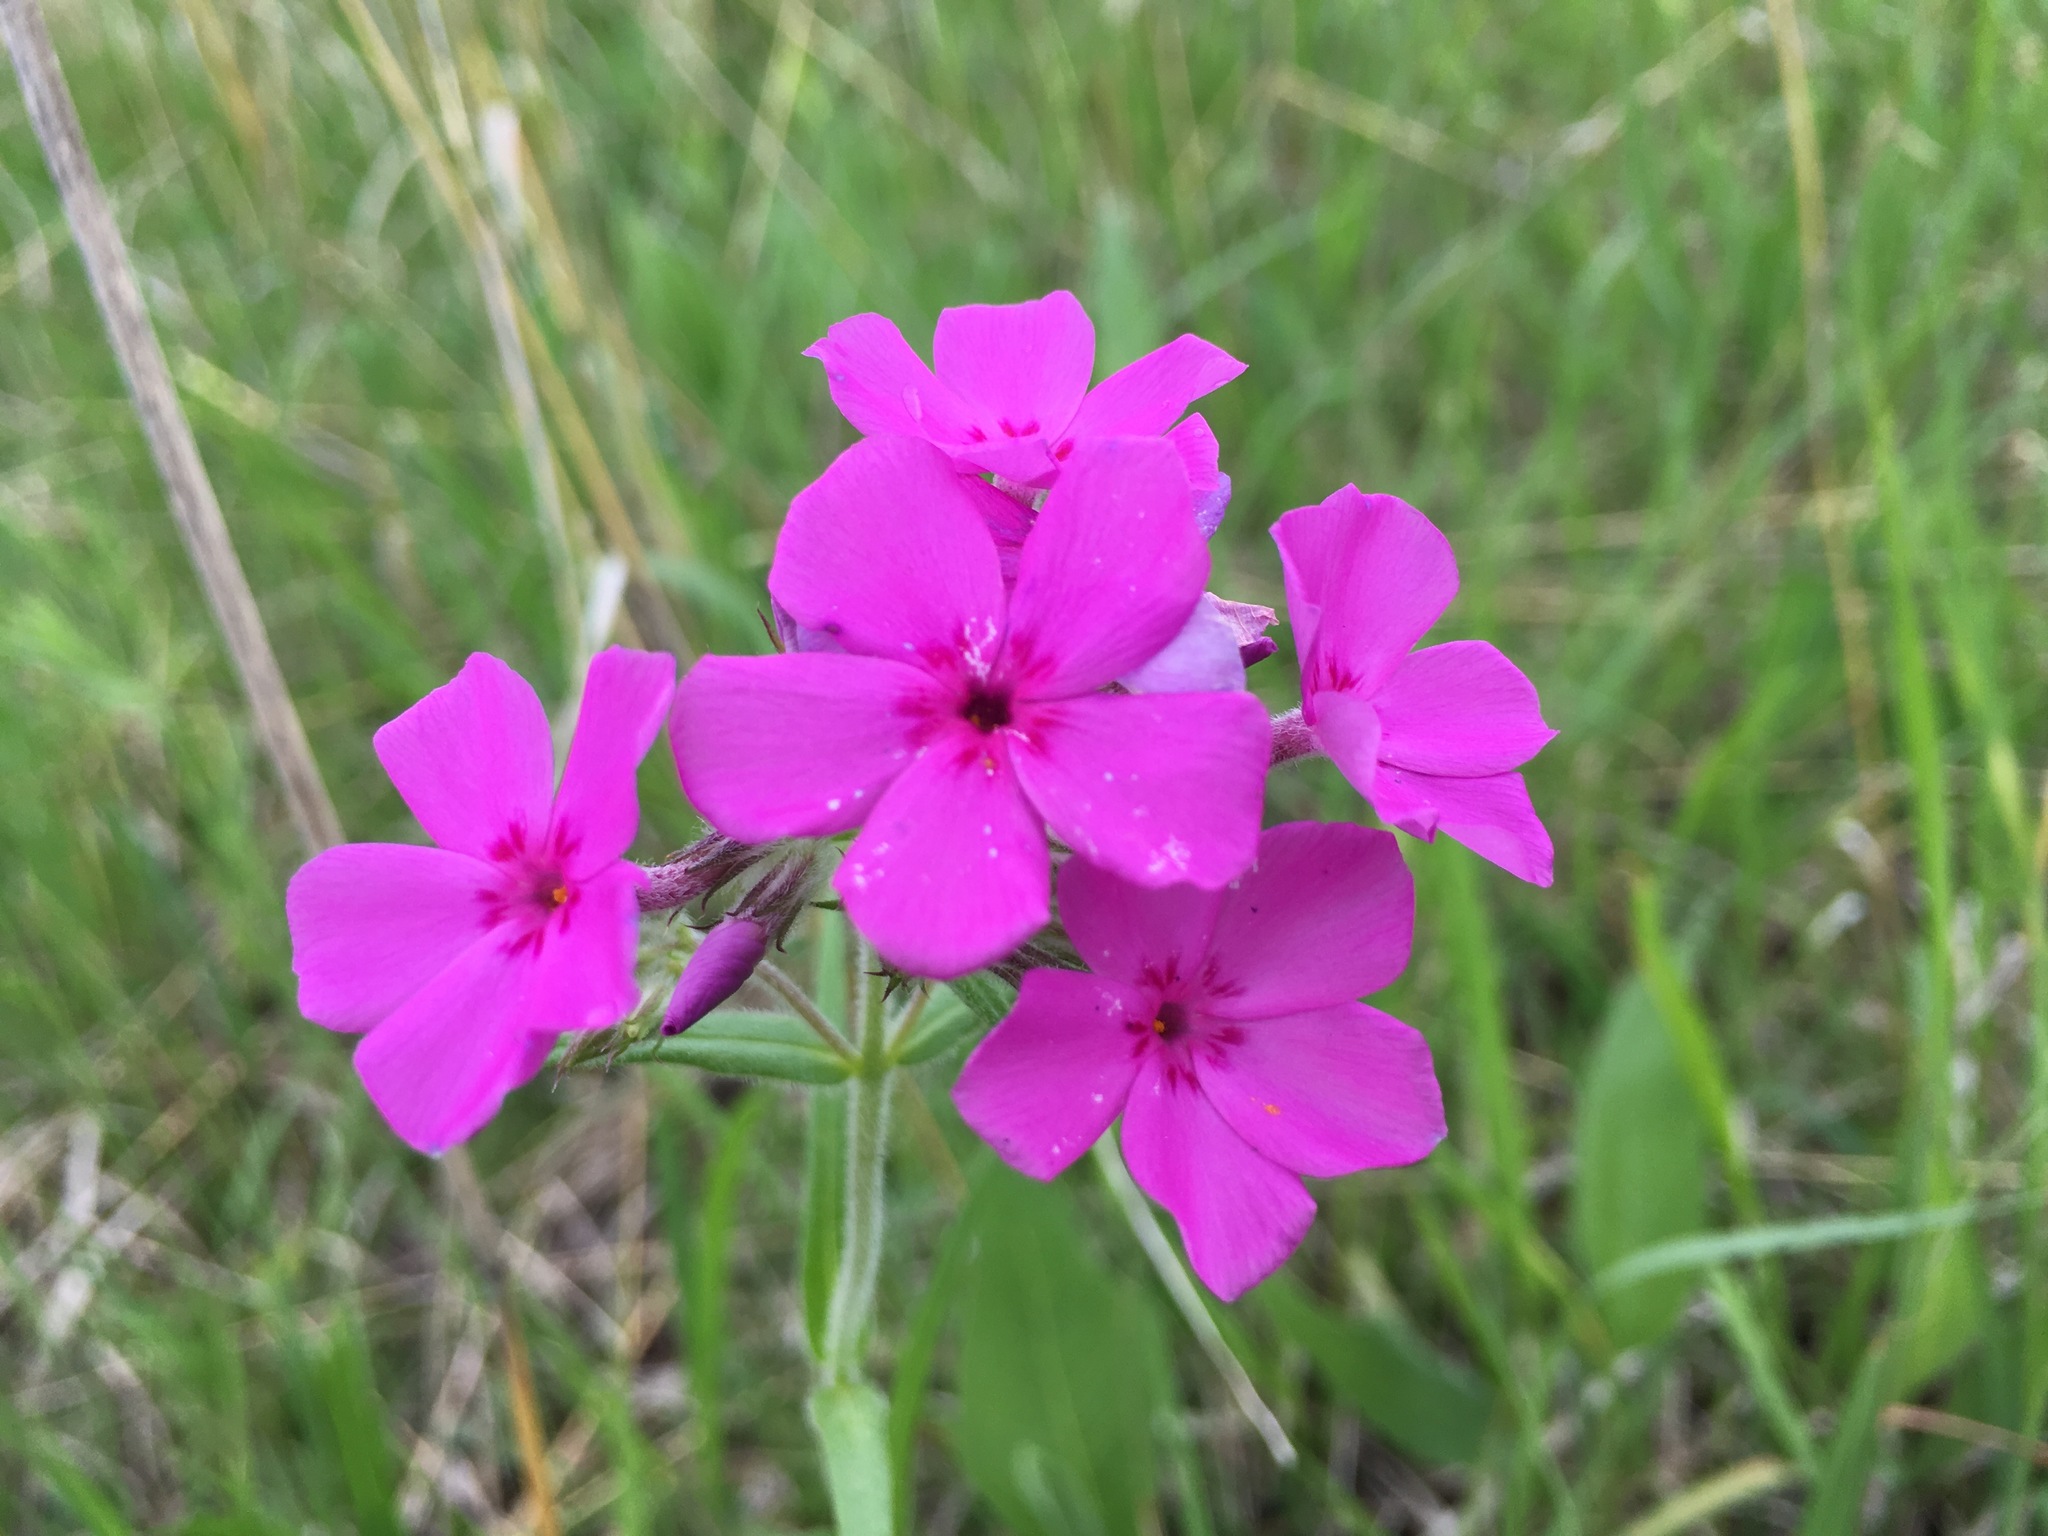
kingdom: Plantae
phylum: Tracheophyta
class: Magnoliopsida
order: Ericales
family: Polemoniaceae
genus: Phlox
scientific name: Phlox pilosa
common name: Prairie phlox
